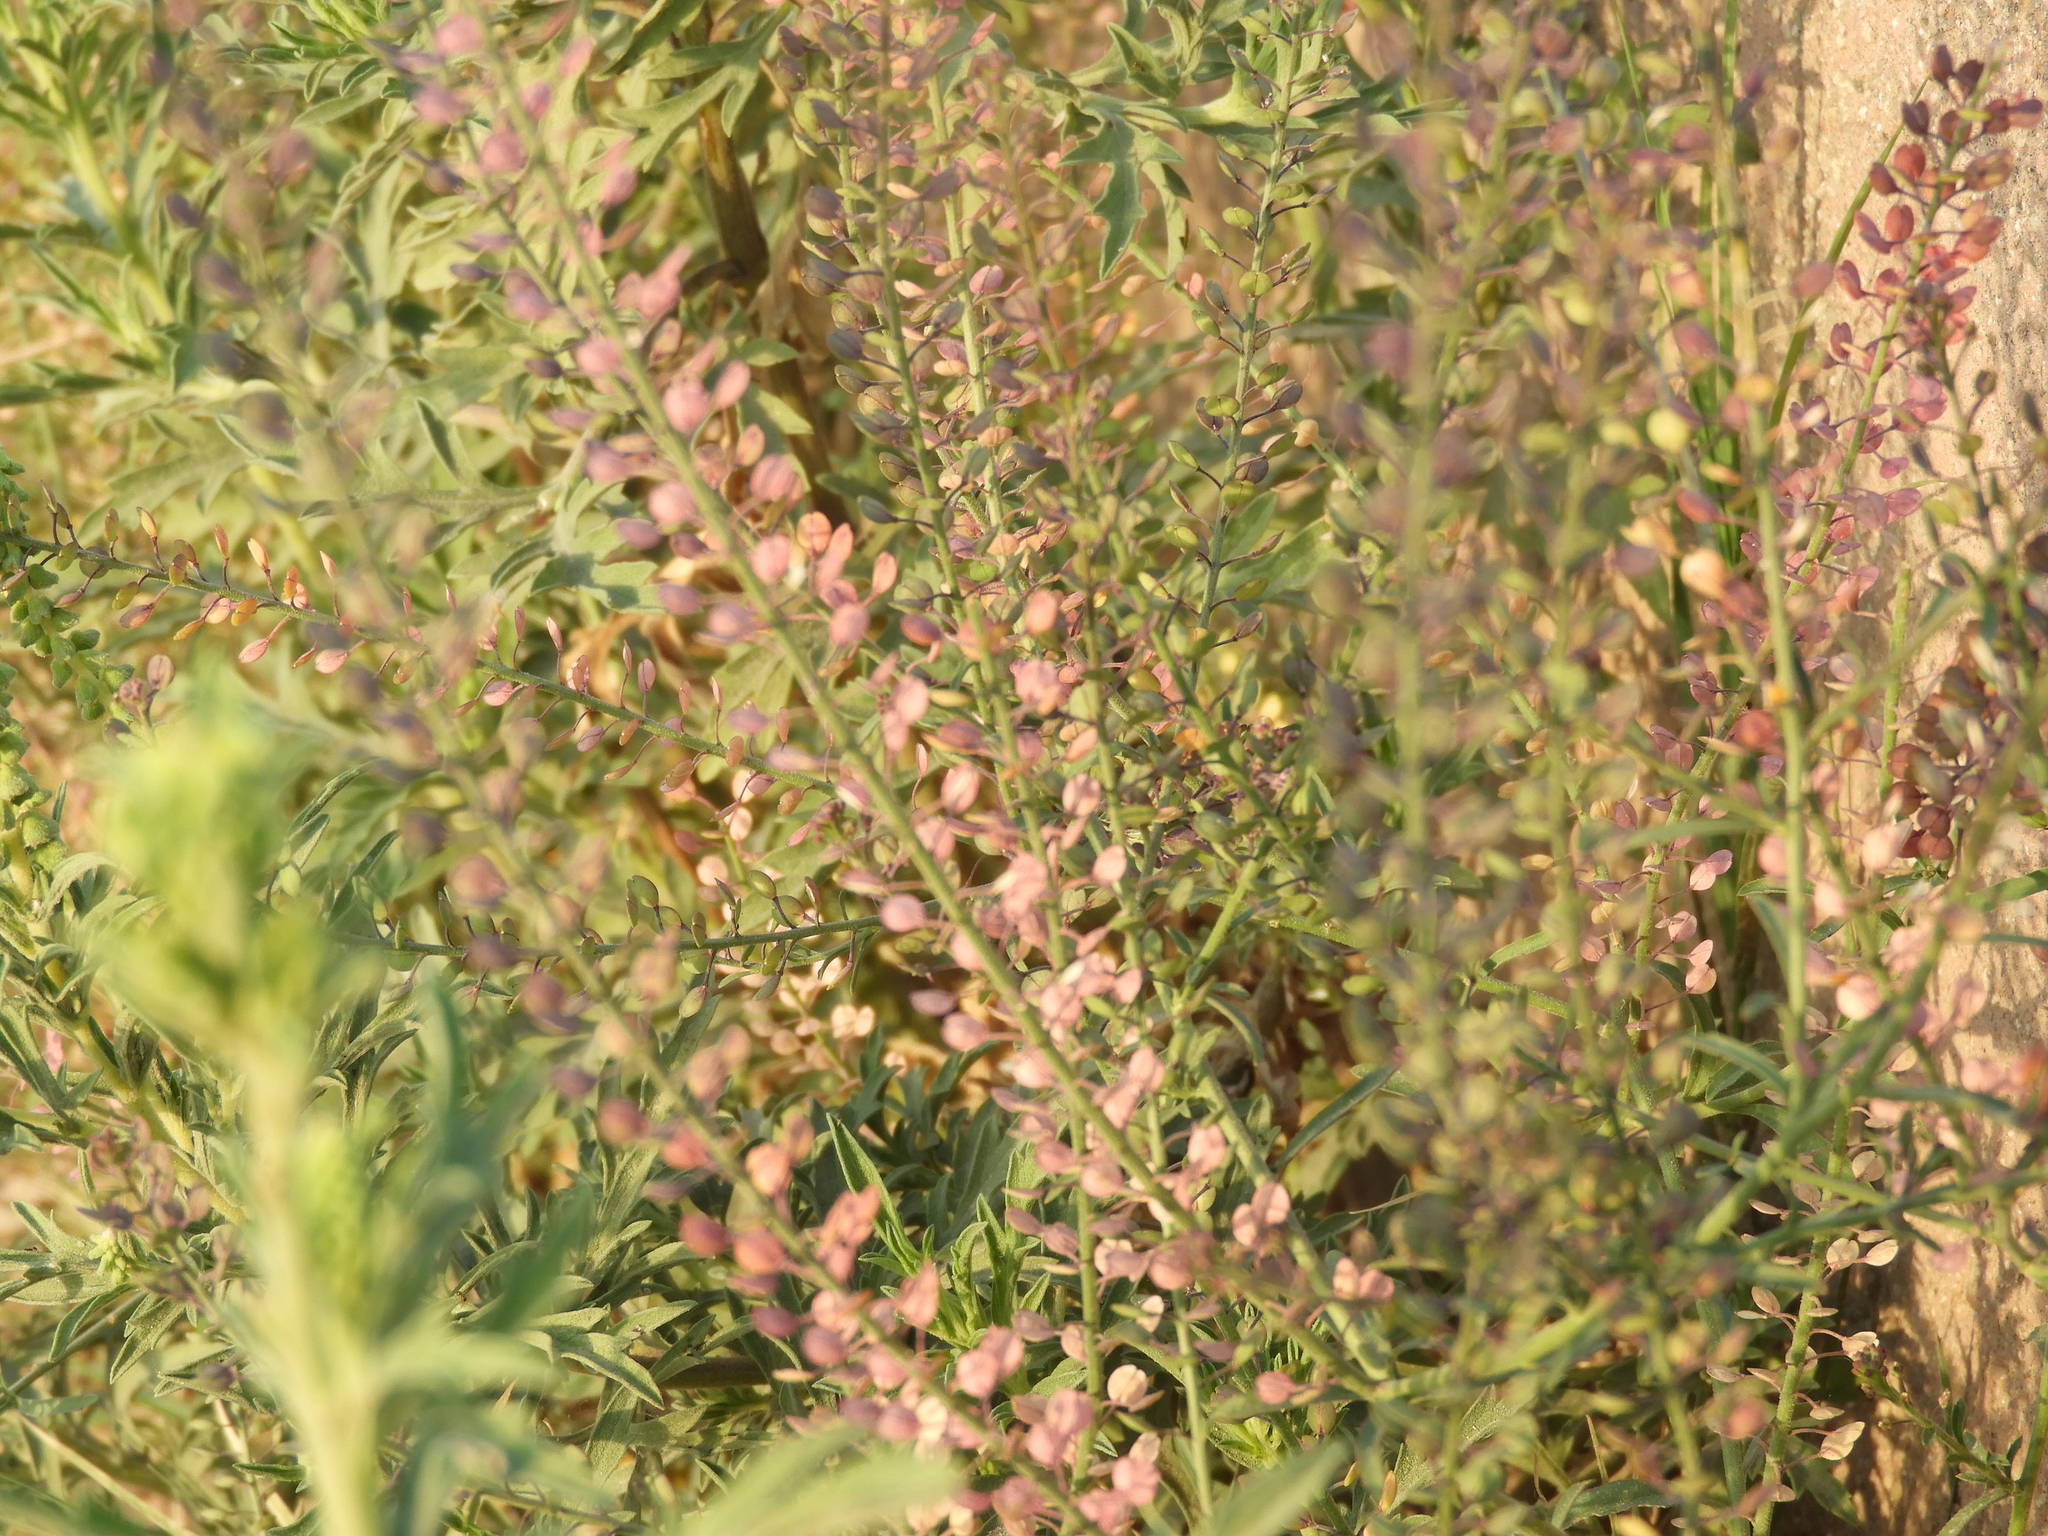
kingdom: Plantae
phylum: Tracheophyta
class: Magnoliopsida
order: Brassicales
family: Brassicaceae
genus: Lepidium
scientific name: Lepidium virginicum
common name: Least pepperwort
